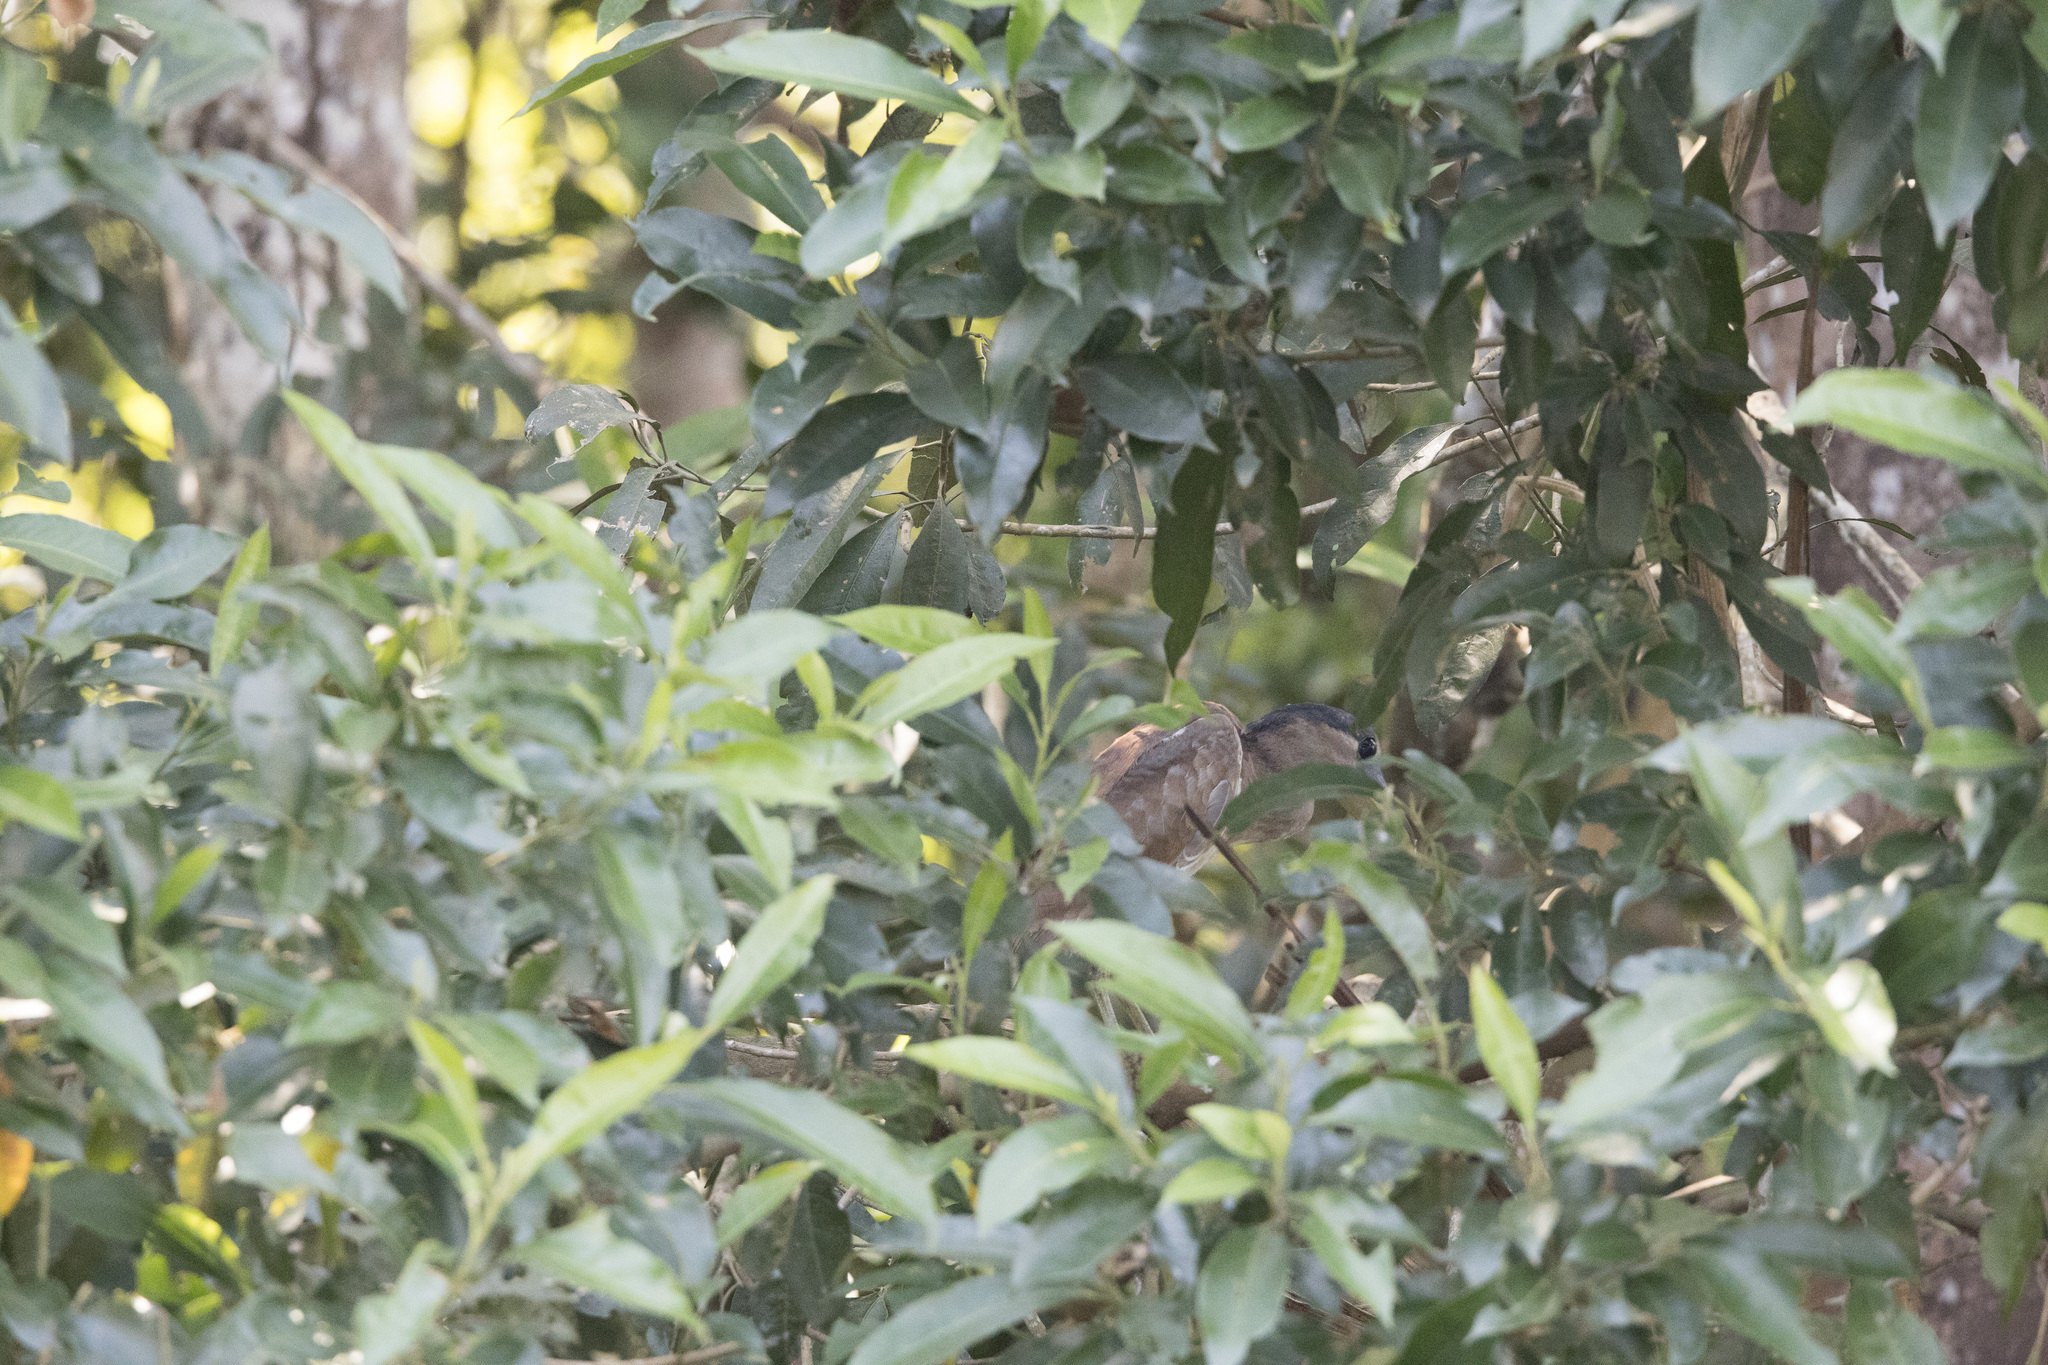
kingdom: Animalia
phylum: Chordata
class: Aves
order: Pelecaniformes
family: Ardeidae
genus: Cochlearius
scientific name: Cochlearius cochlearius
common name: Boat-billed heron
